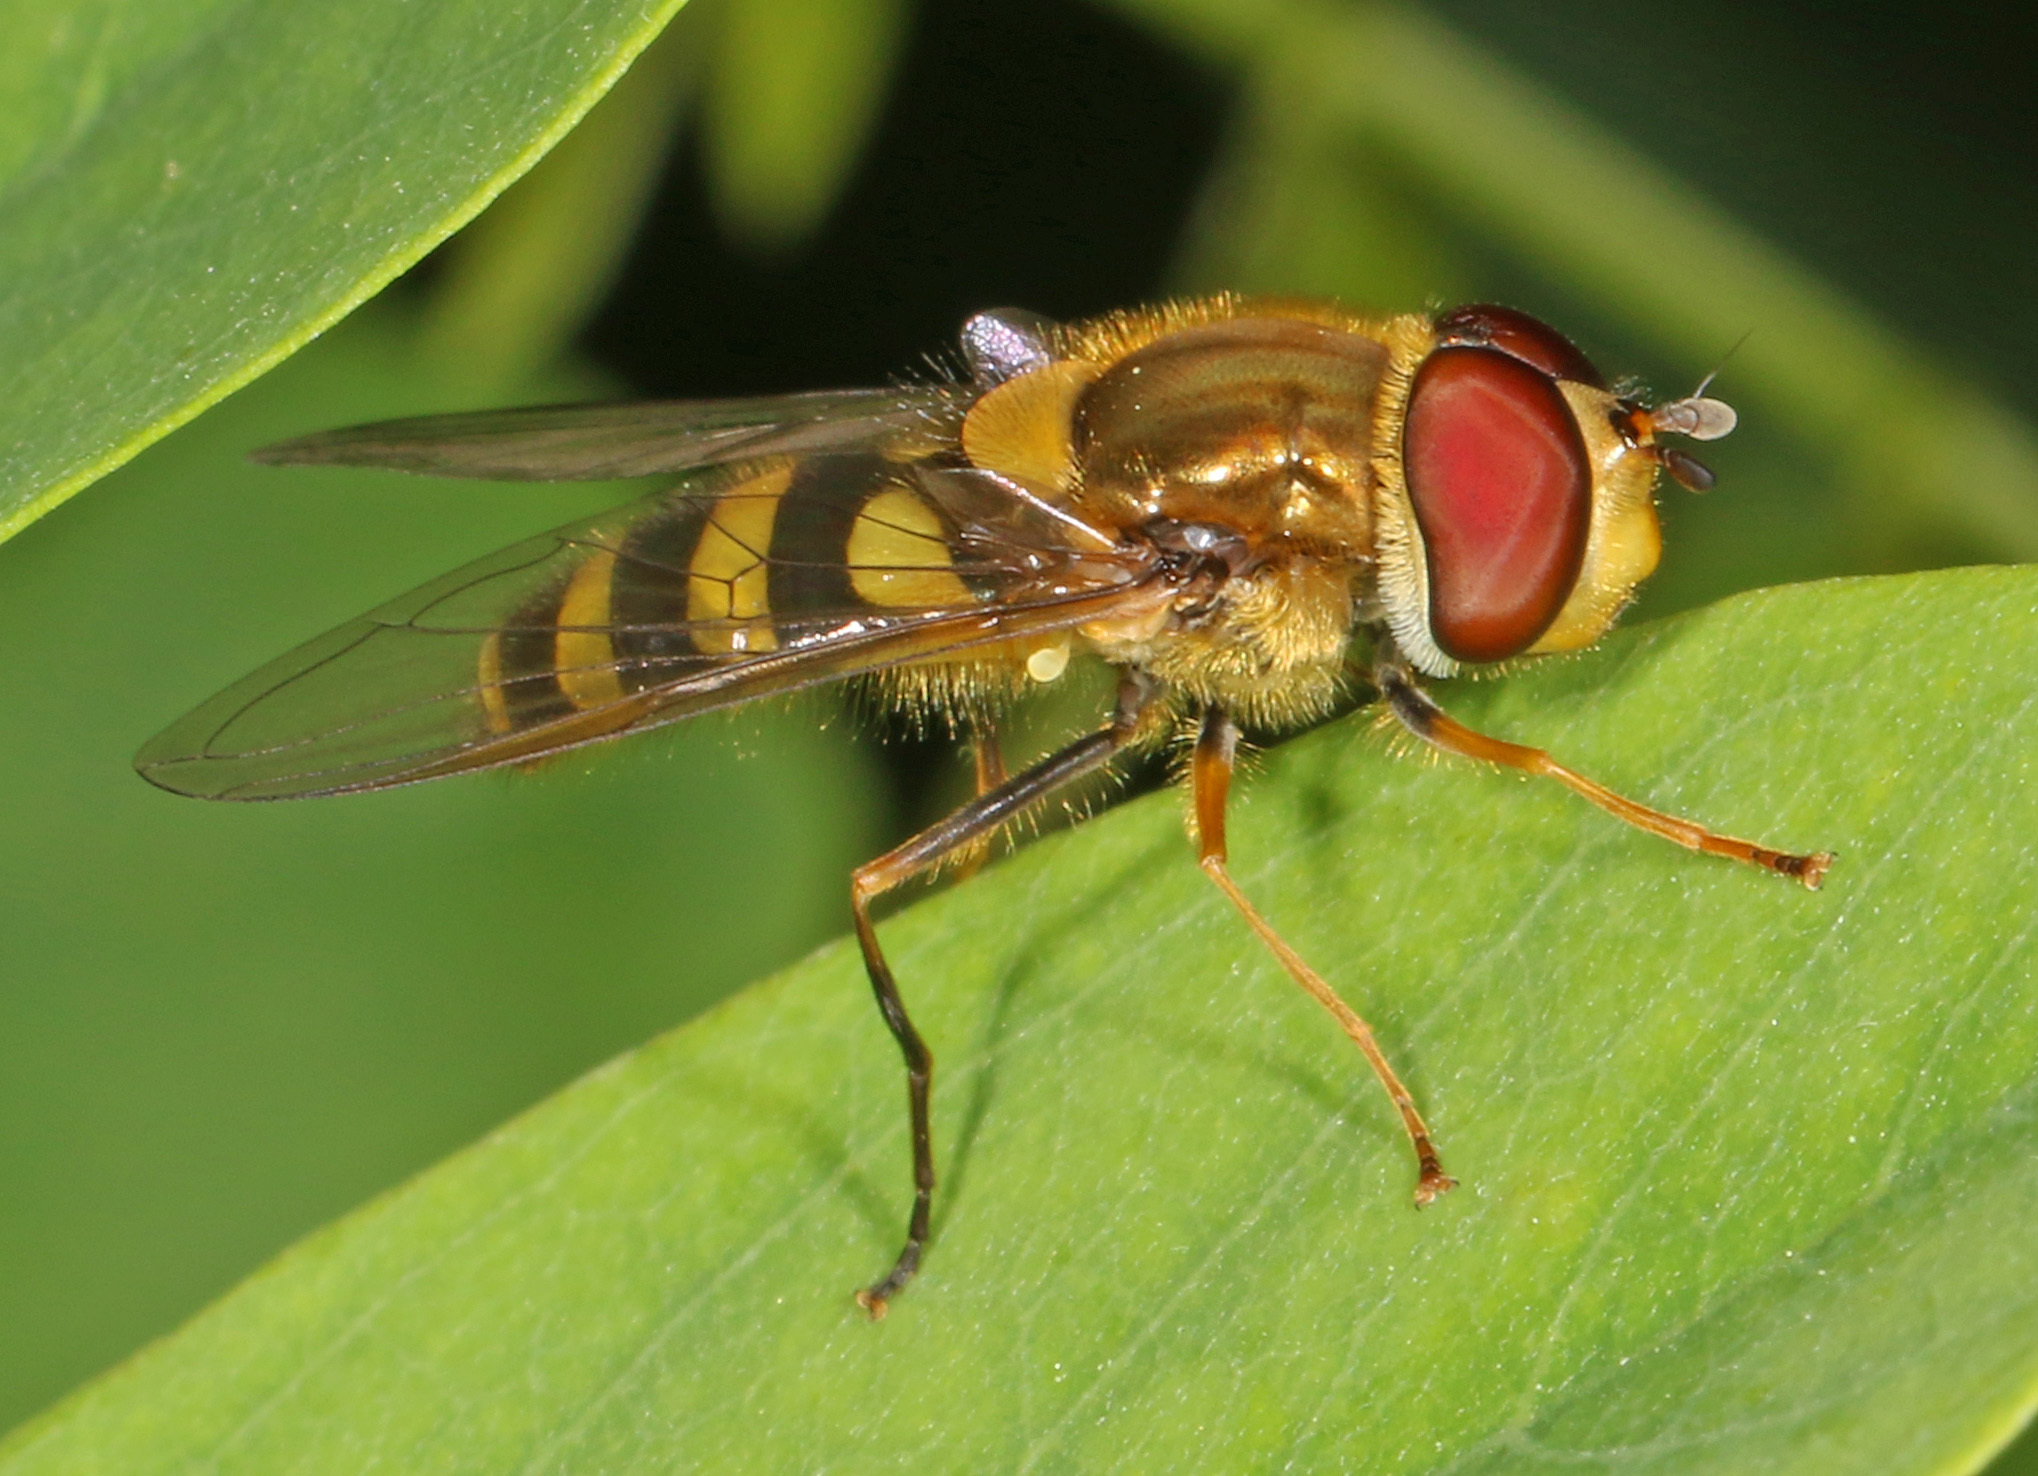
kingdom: Animalia
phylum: Arthropoda
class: Insecta
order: Diptera
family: Syrphidae
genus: Syrphus
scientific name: Syrphus
